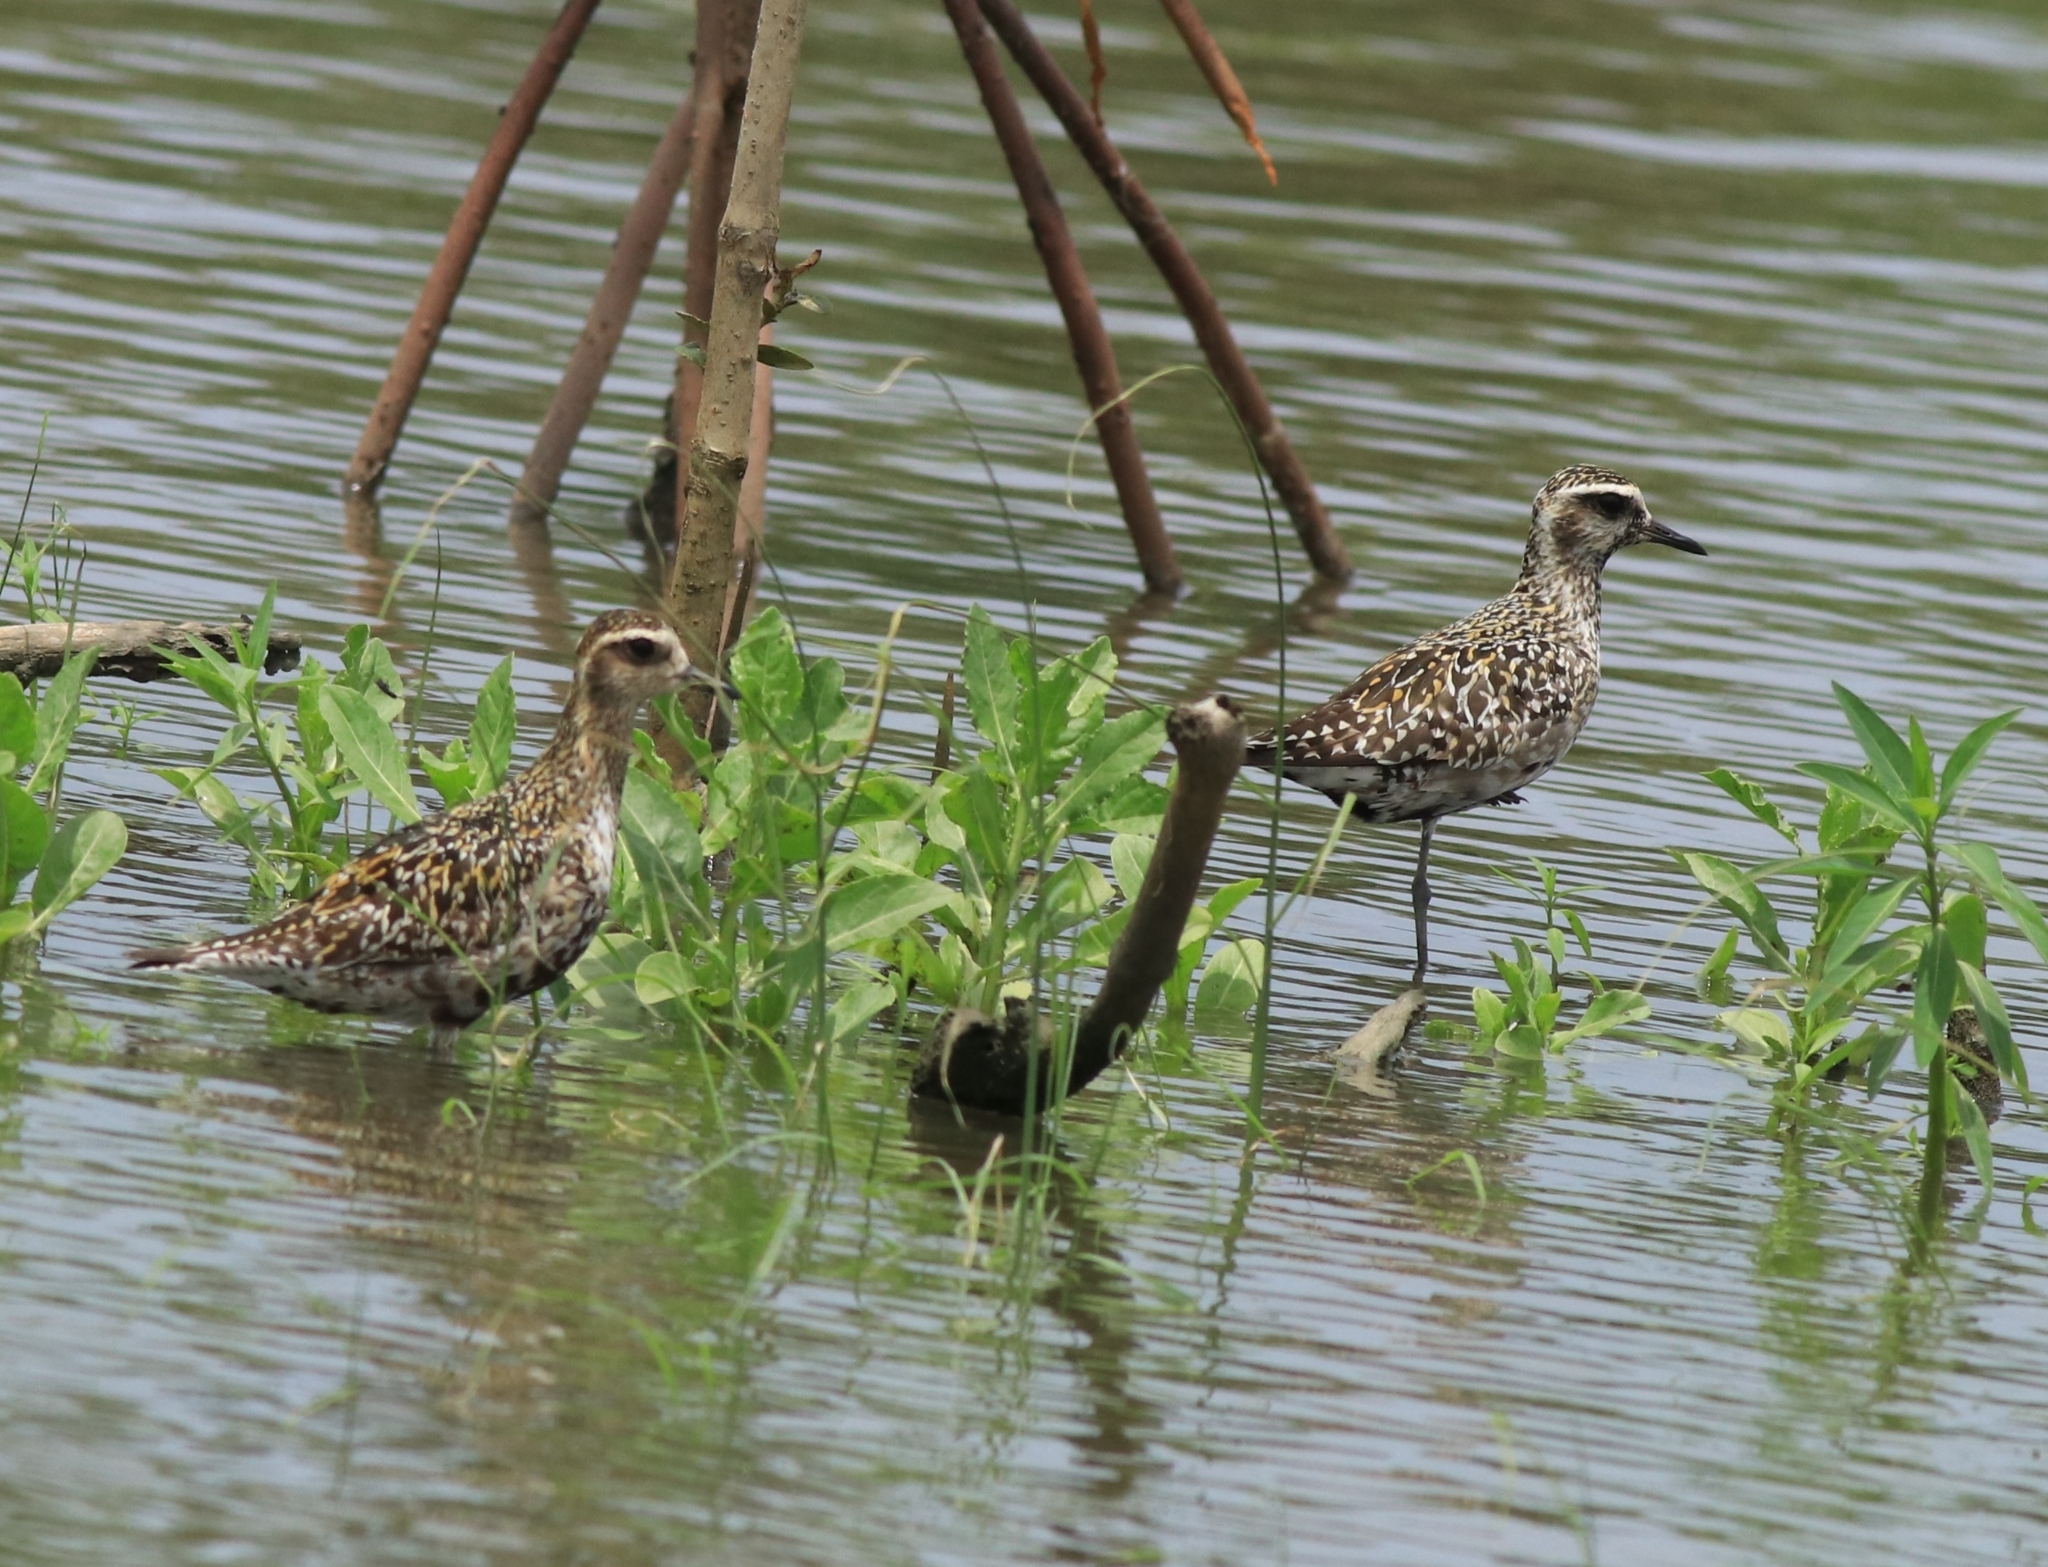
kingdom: Animalia
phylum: Chordata
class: Aves
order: Charadriiformes
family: Charadriidae
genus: Pluvialis
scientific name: Pluvialis fulva
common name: Pacific golden plover
